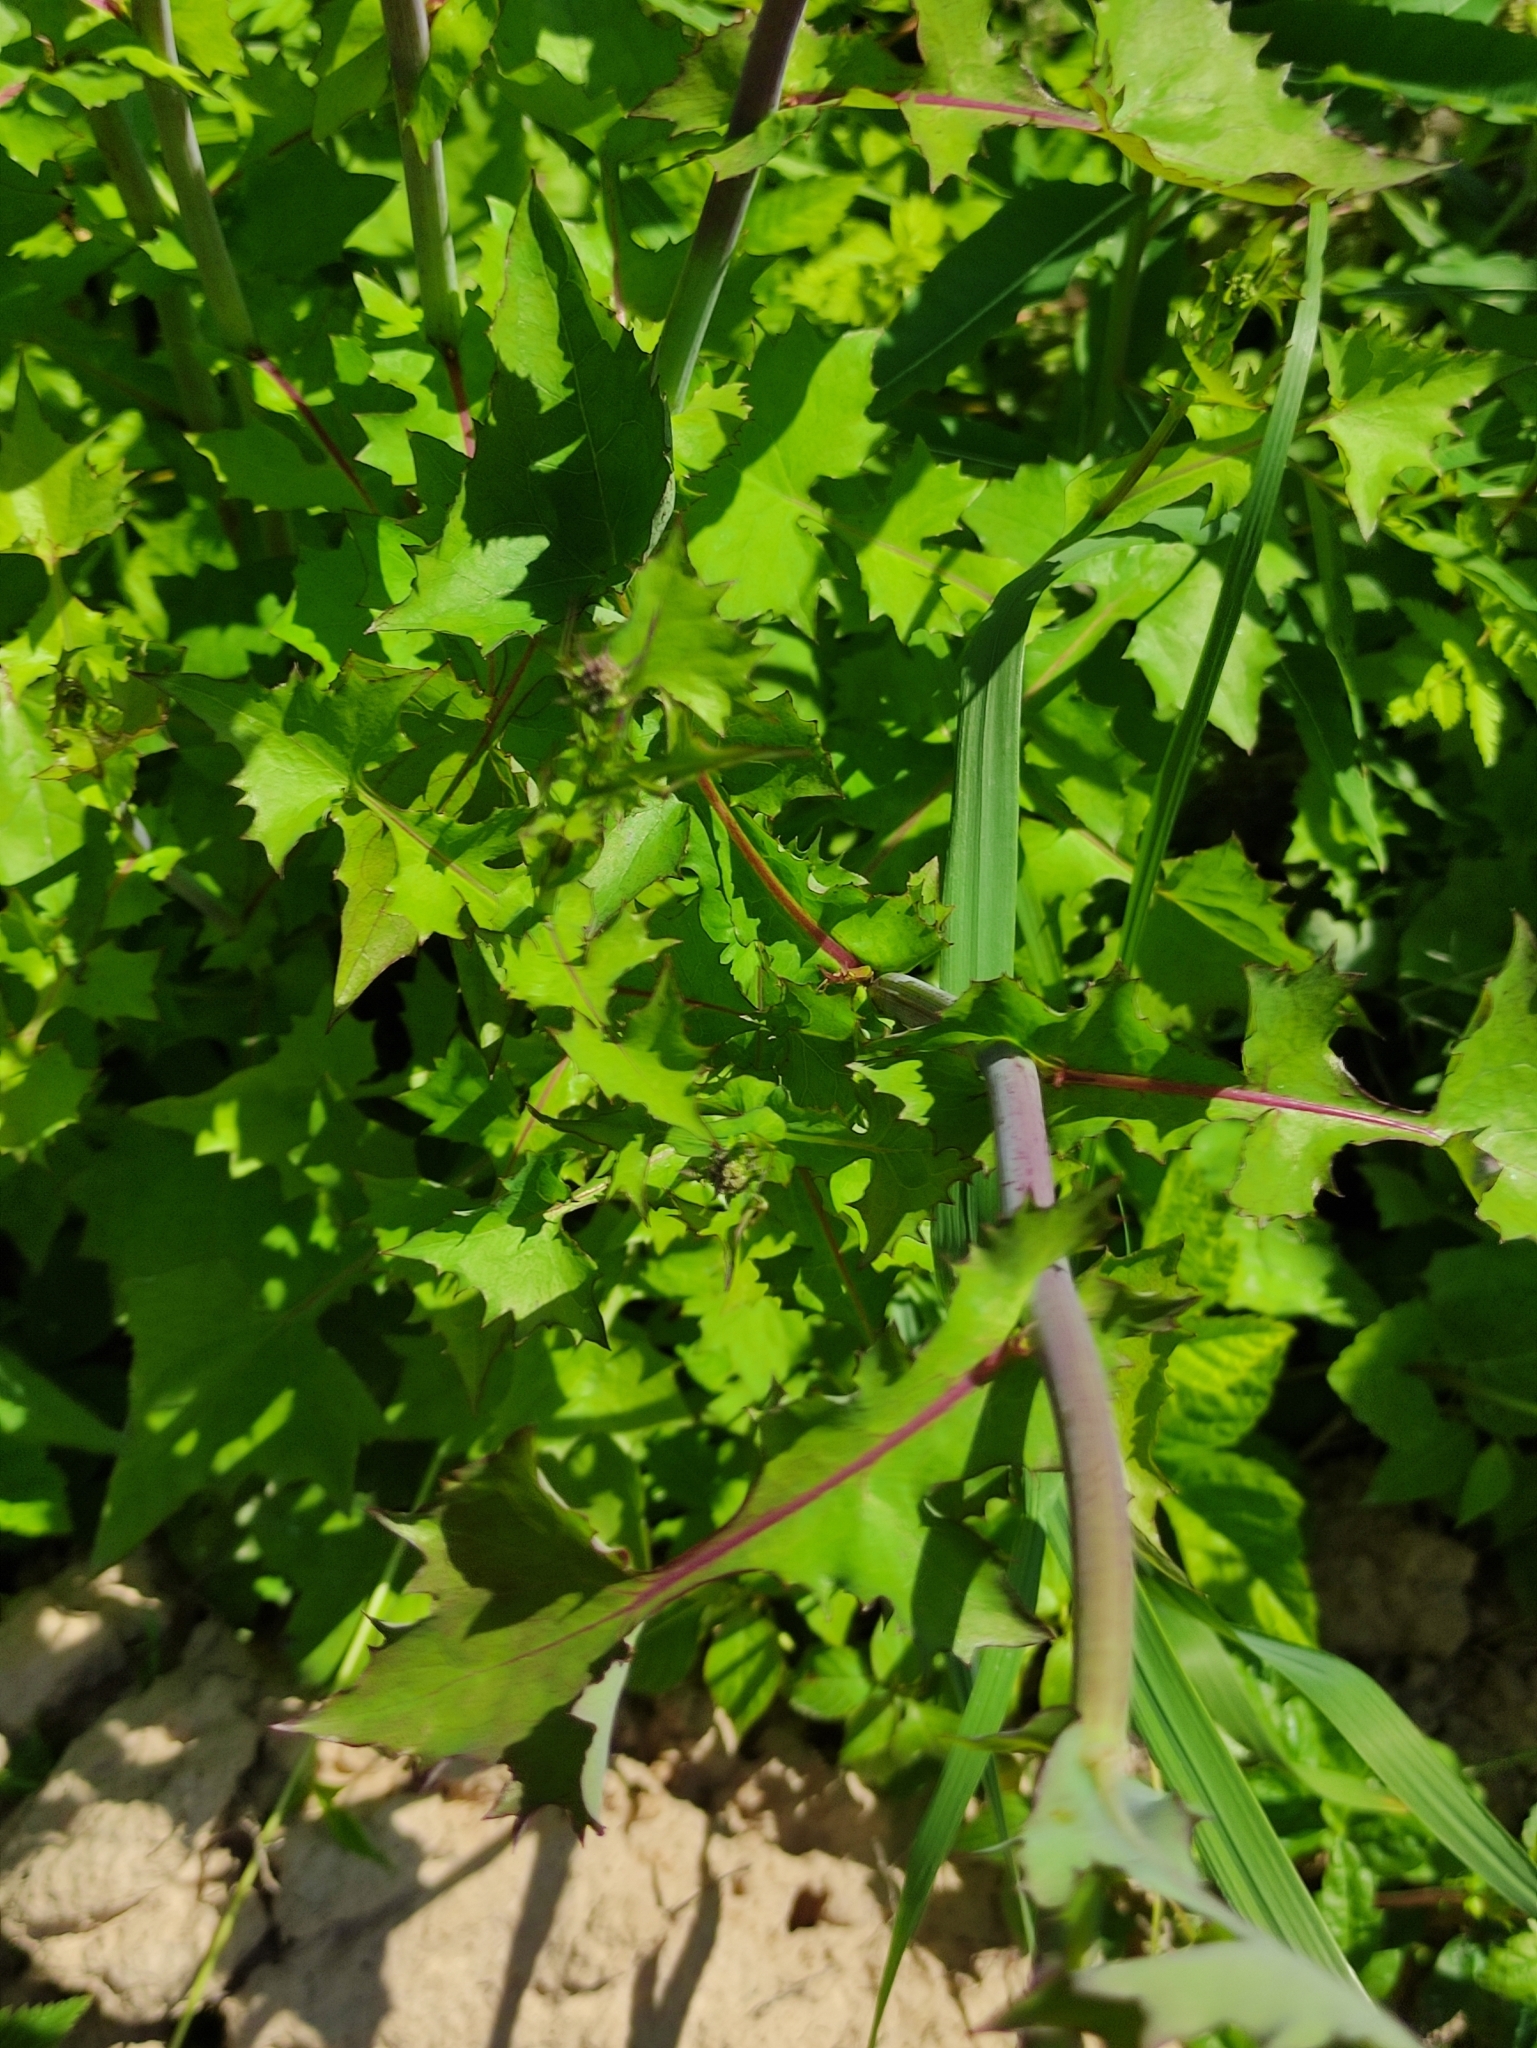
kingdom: Plantae
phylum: Tracheophyta
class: Magnoliopsida
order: Asterales
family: Asteraceae
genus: Mycelis
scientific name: Mycelis muralis
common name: Wall lettuce
